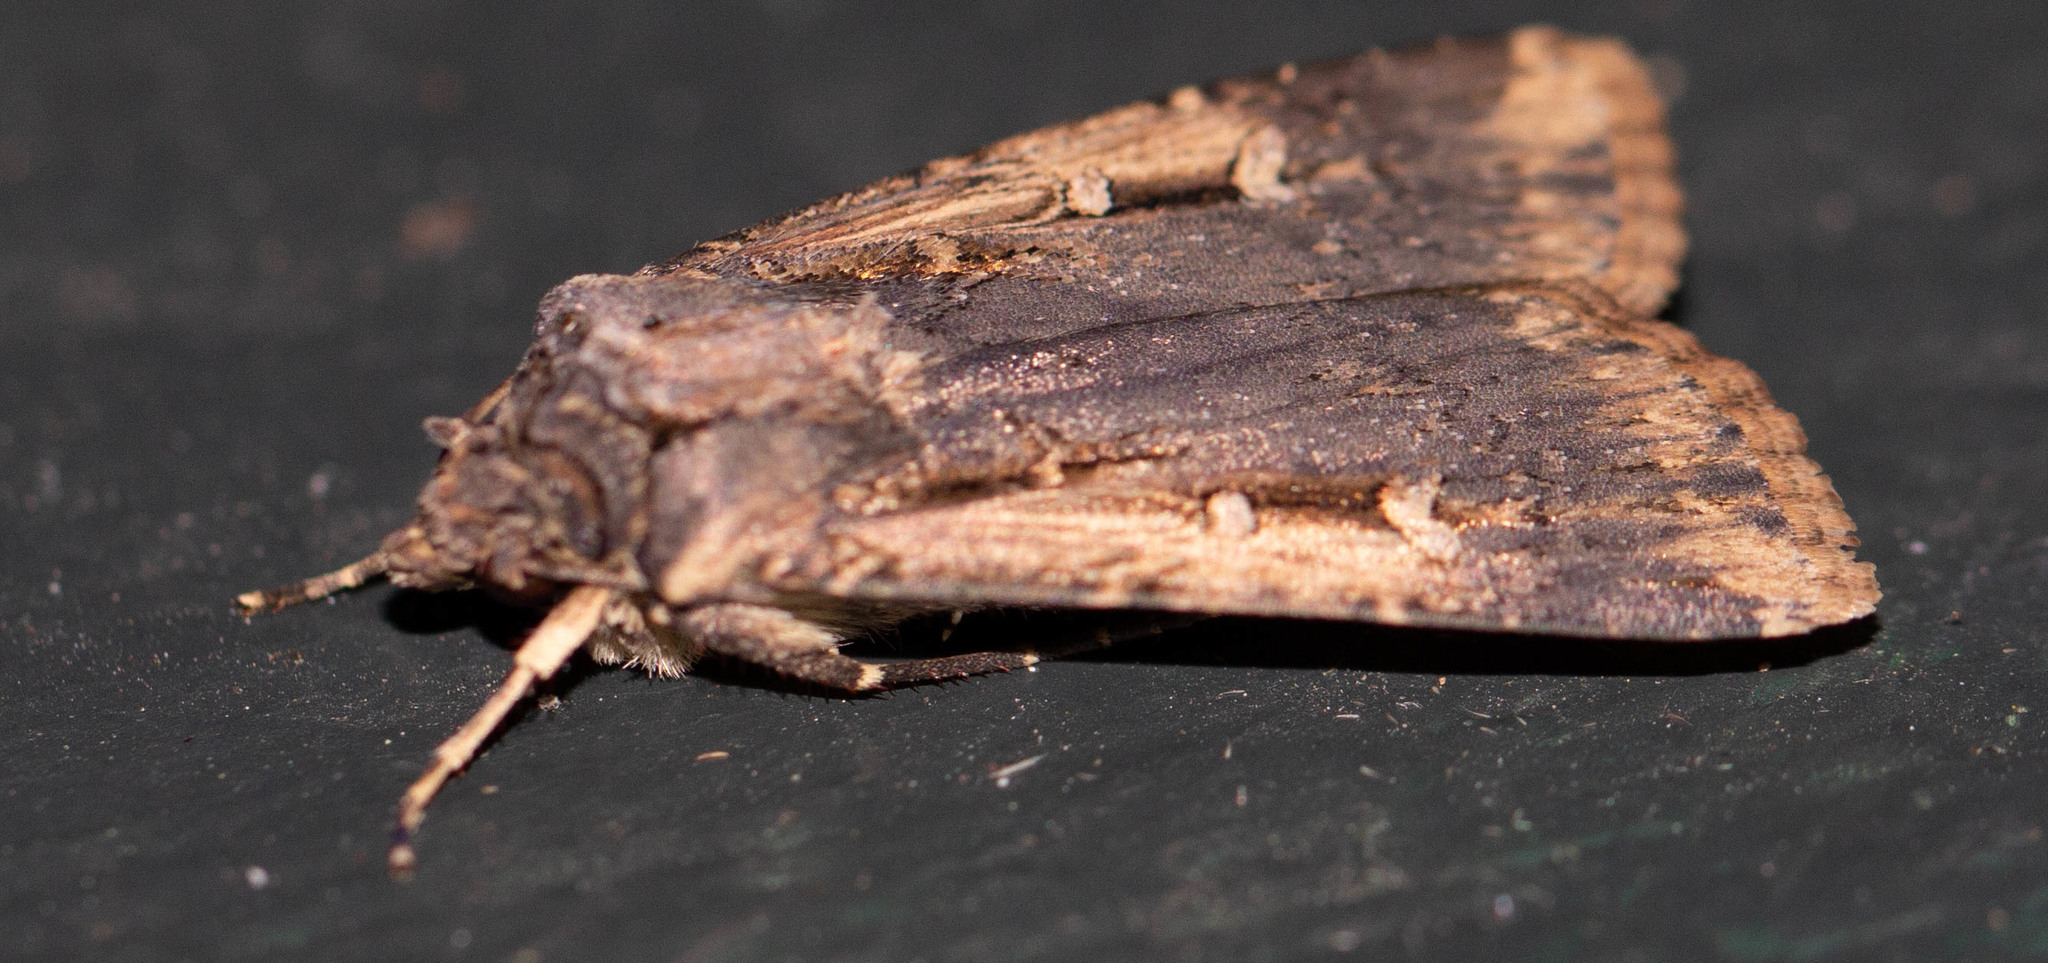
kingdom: Animalia
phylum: Arthropoda
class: Insecta
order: Lepidoptera
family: Noctuidae
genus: Feltia
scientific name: Feltia subterranea
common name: Granulate cutworm
